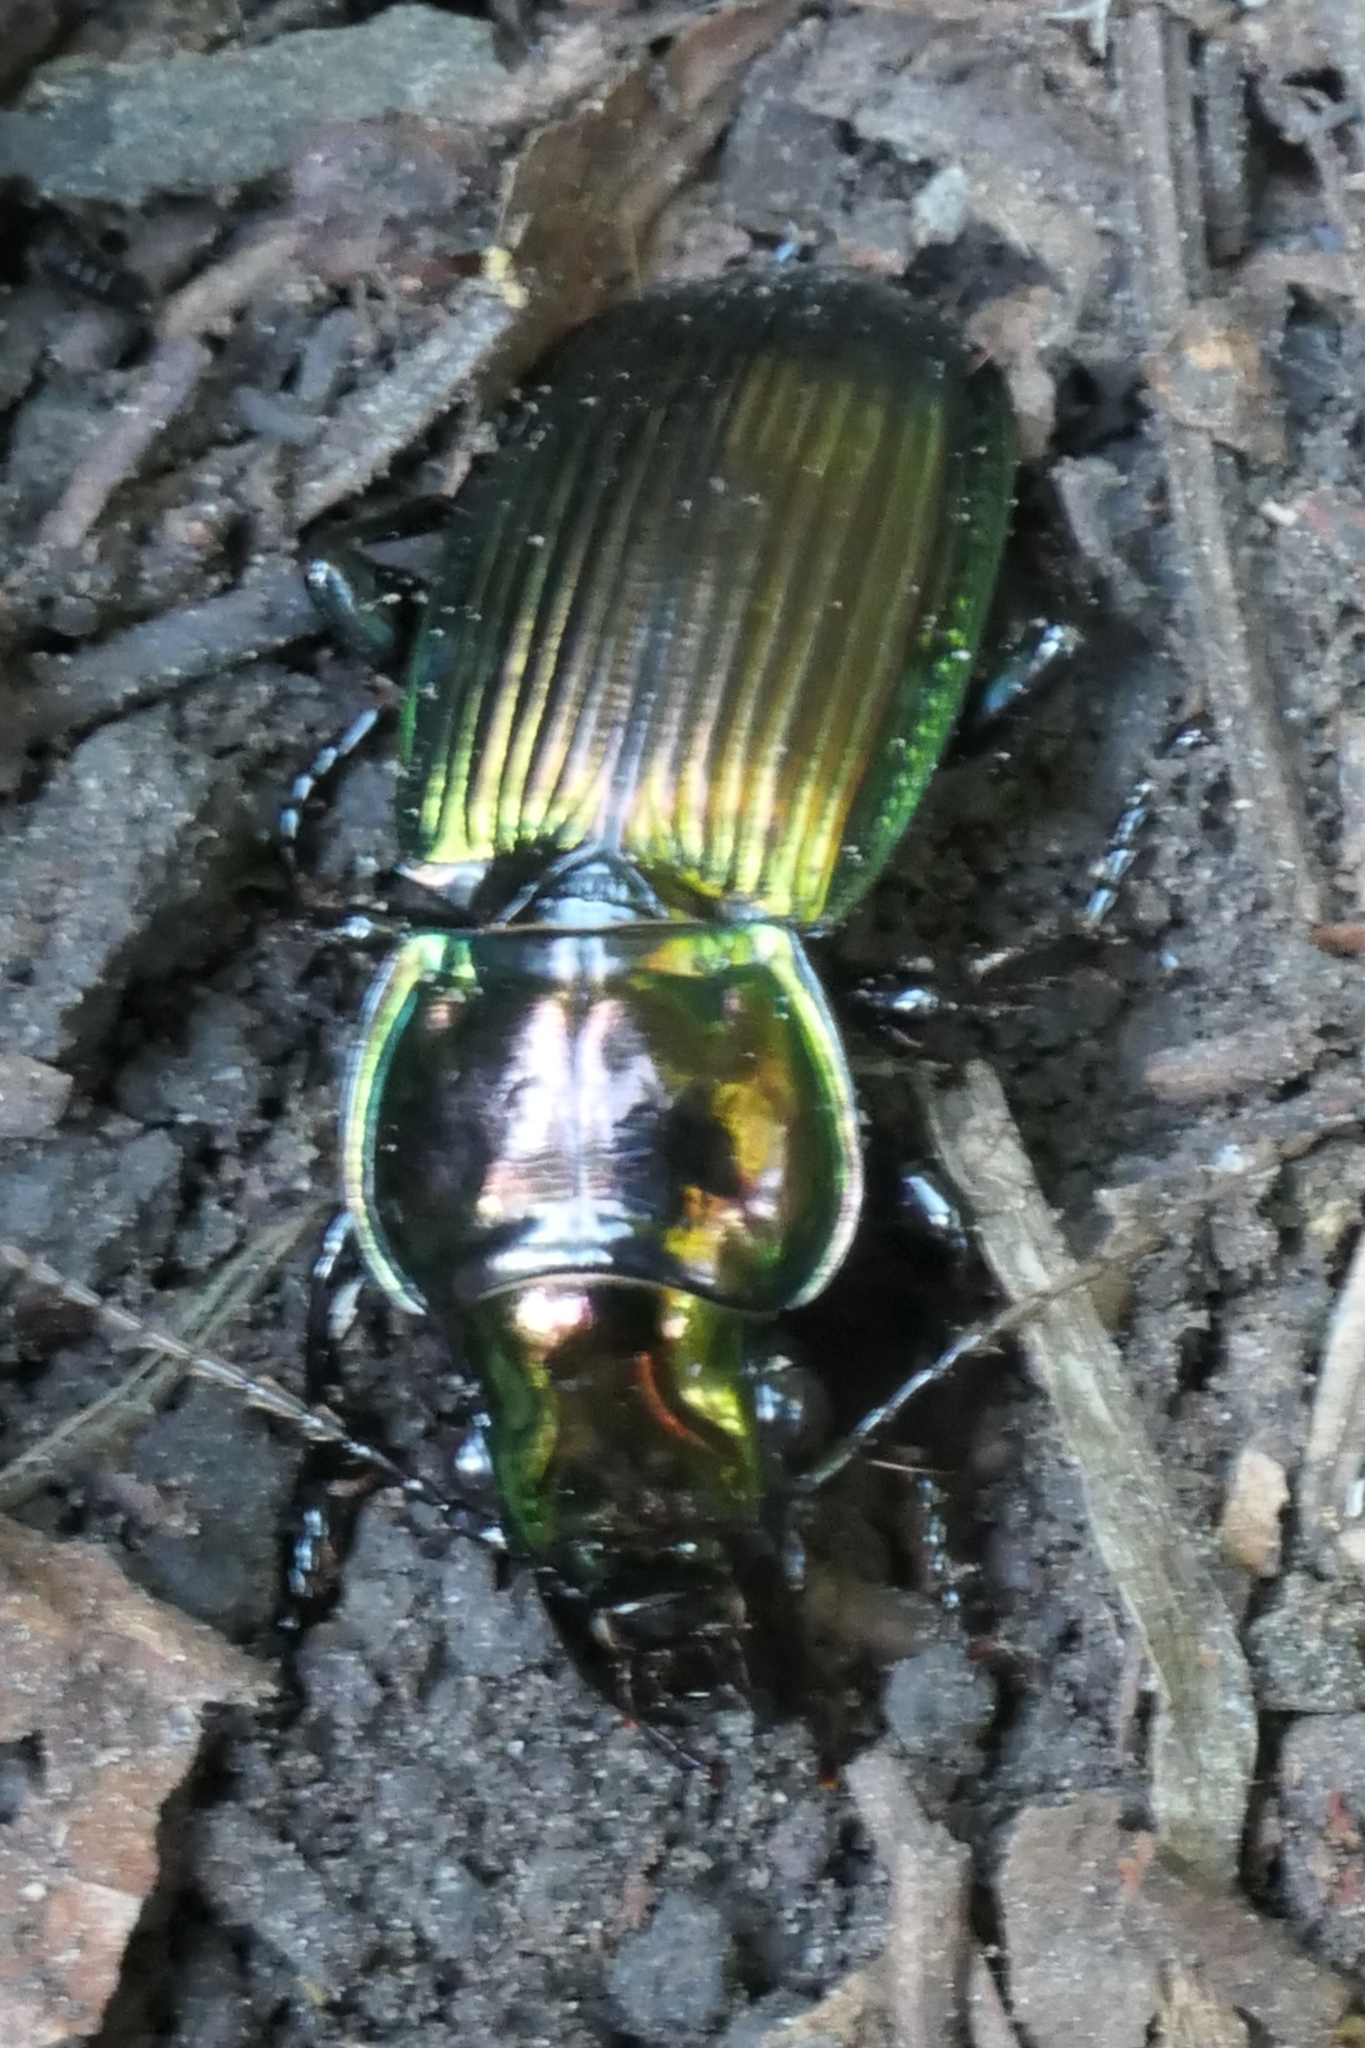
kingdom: Animalia
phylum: Arthropoda
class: Insecta
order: Coleoptera
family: Carabidae
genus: Megadromus
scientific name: Megadromus antarcticus
